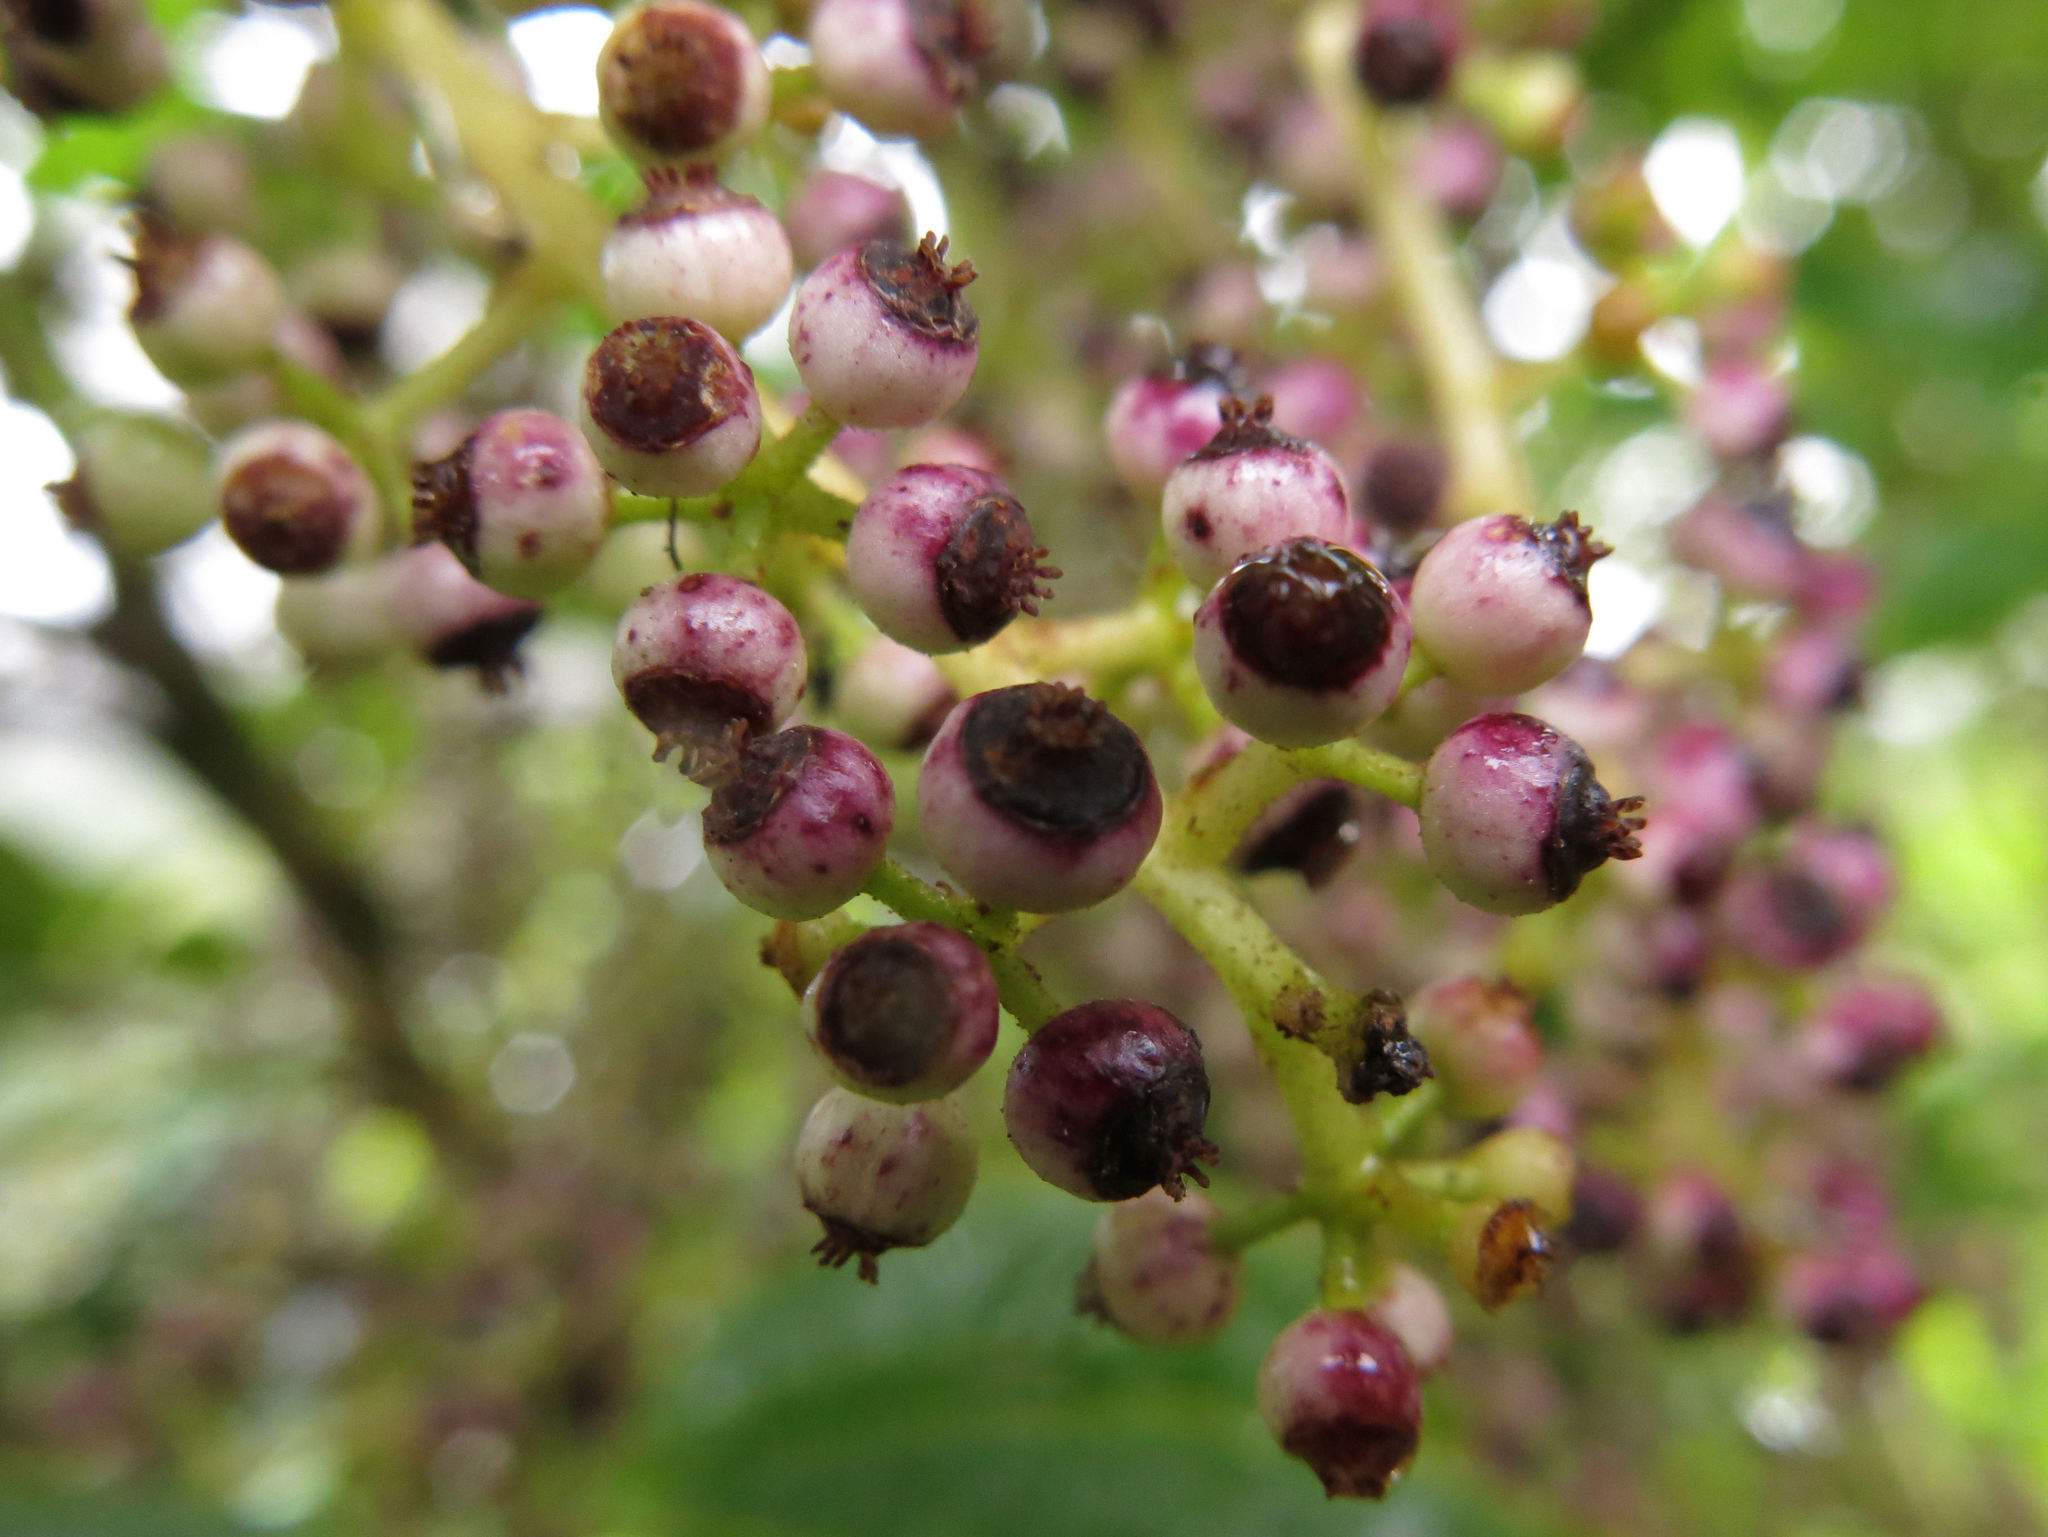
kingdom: Plantae
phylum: Tracheophyta
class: Magnoliopsida
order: Apiales
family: Araliaceae
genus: Schefflera
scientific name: Schefflera digitata
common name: Pate
